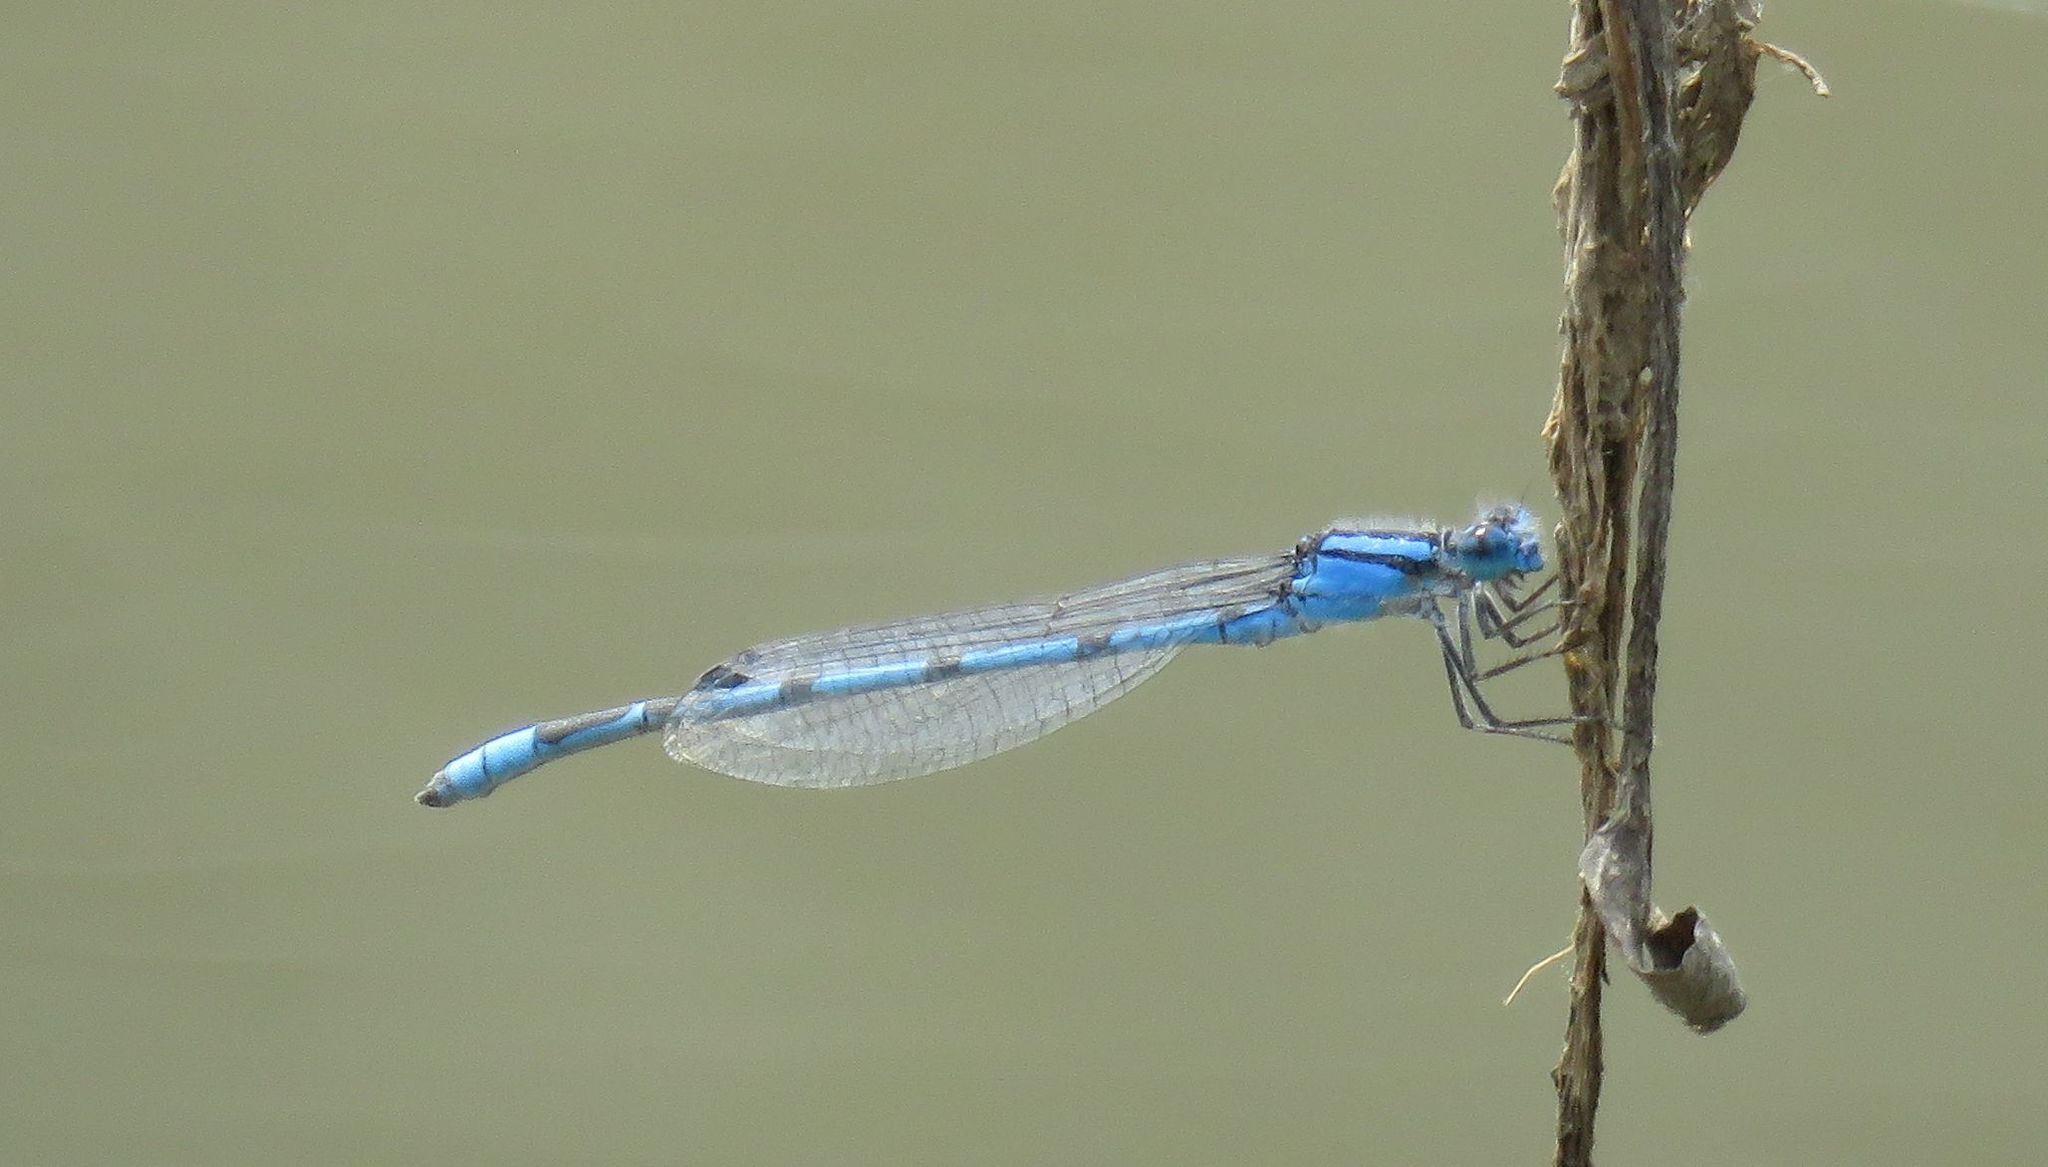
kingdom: Animalia
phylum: Arthropoda
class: Insecta
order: Odonata
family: Coenagrionidae
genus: Enallagma
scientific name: Enallagma civile
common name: Damselfly
